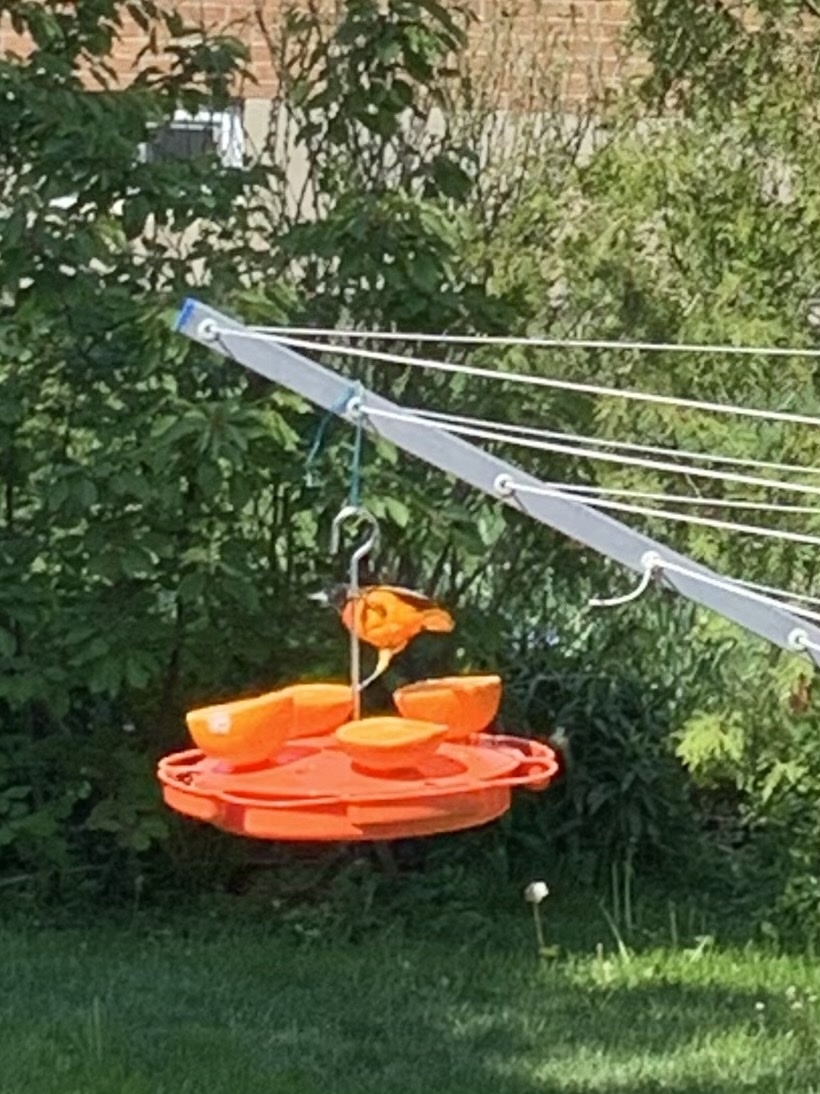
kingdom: Animalia
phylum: Chordata
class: Aves
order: Passeriformes
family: Icteridae
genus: Icterus
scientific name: Icterus galbula
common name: Baltimore oriole
